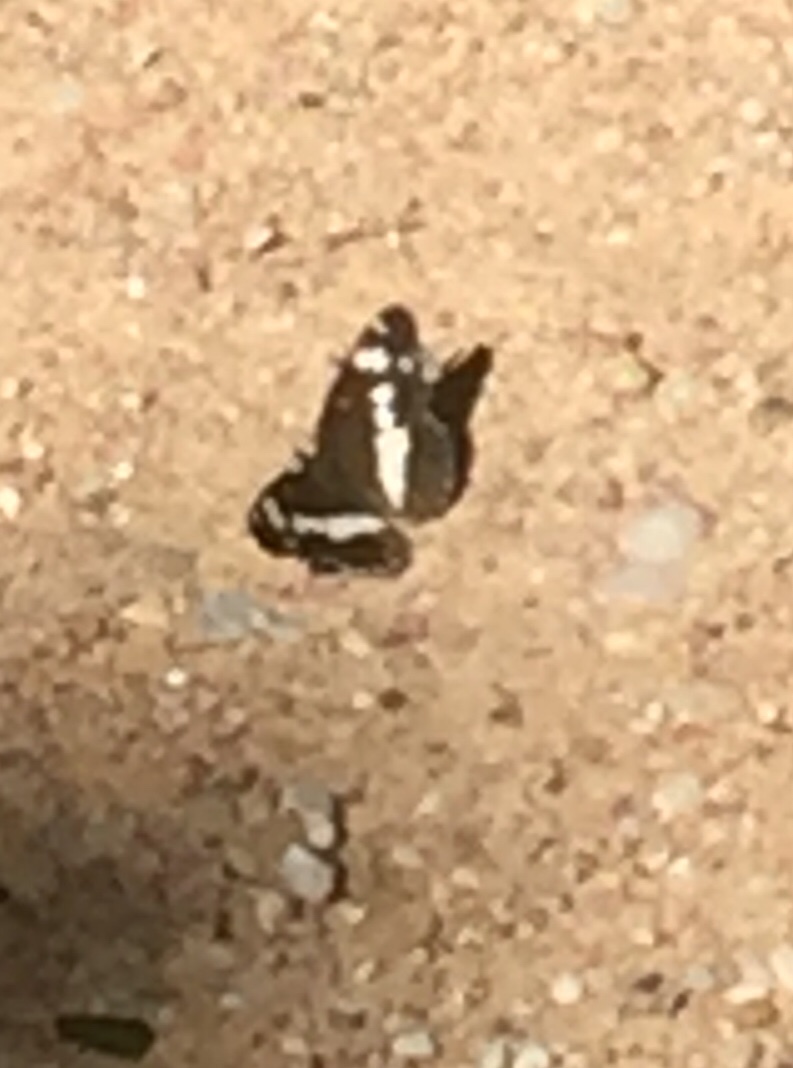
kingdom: Animalia
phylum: Arthropoda
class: Insecta
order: Lepidoptera
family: Nymphalidae
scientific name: Nymphalidae
